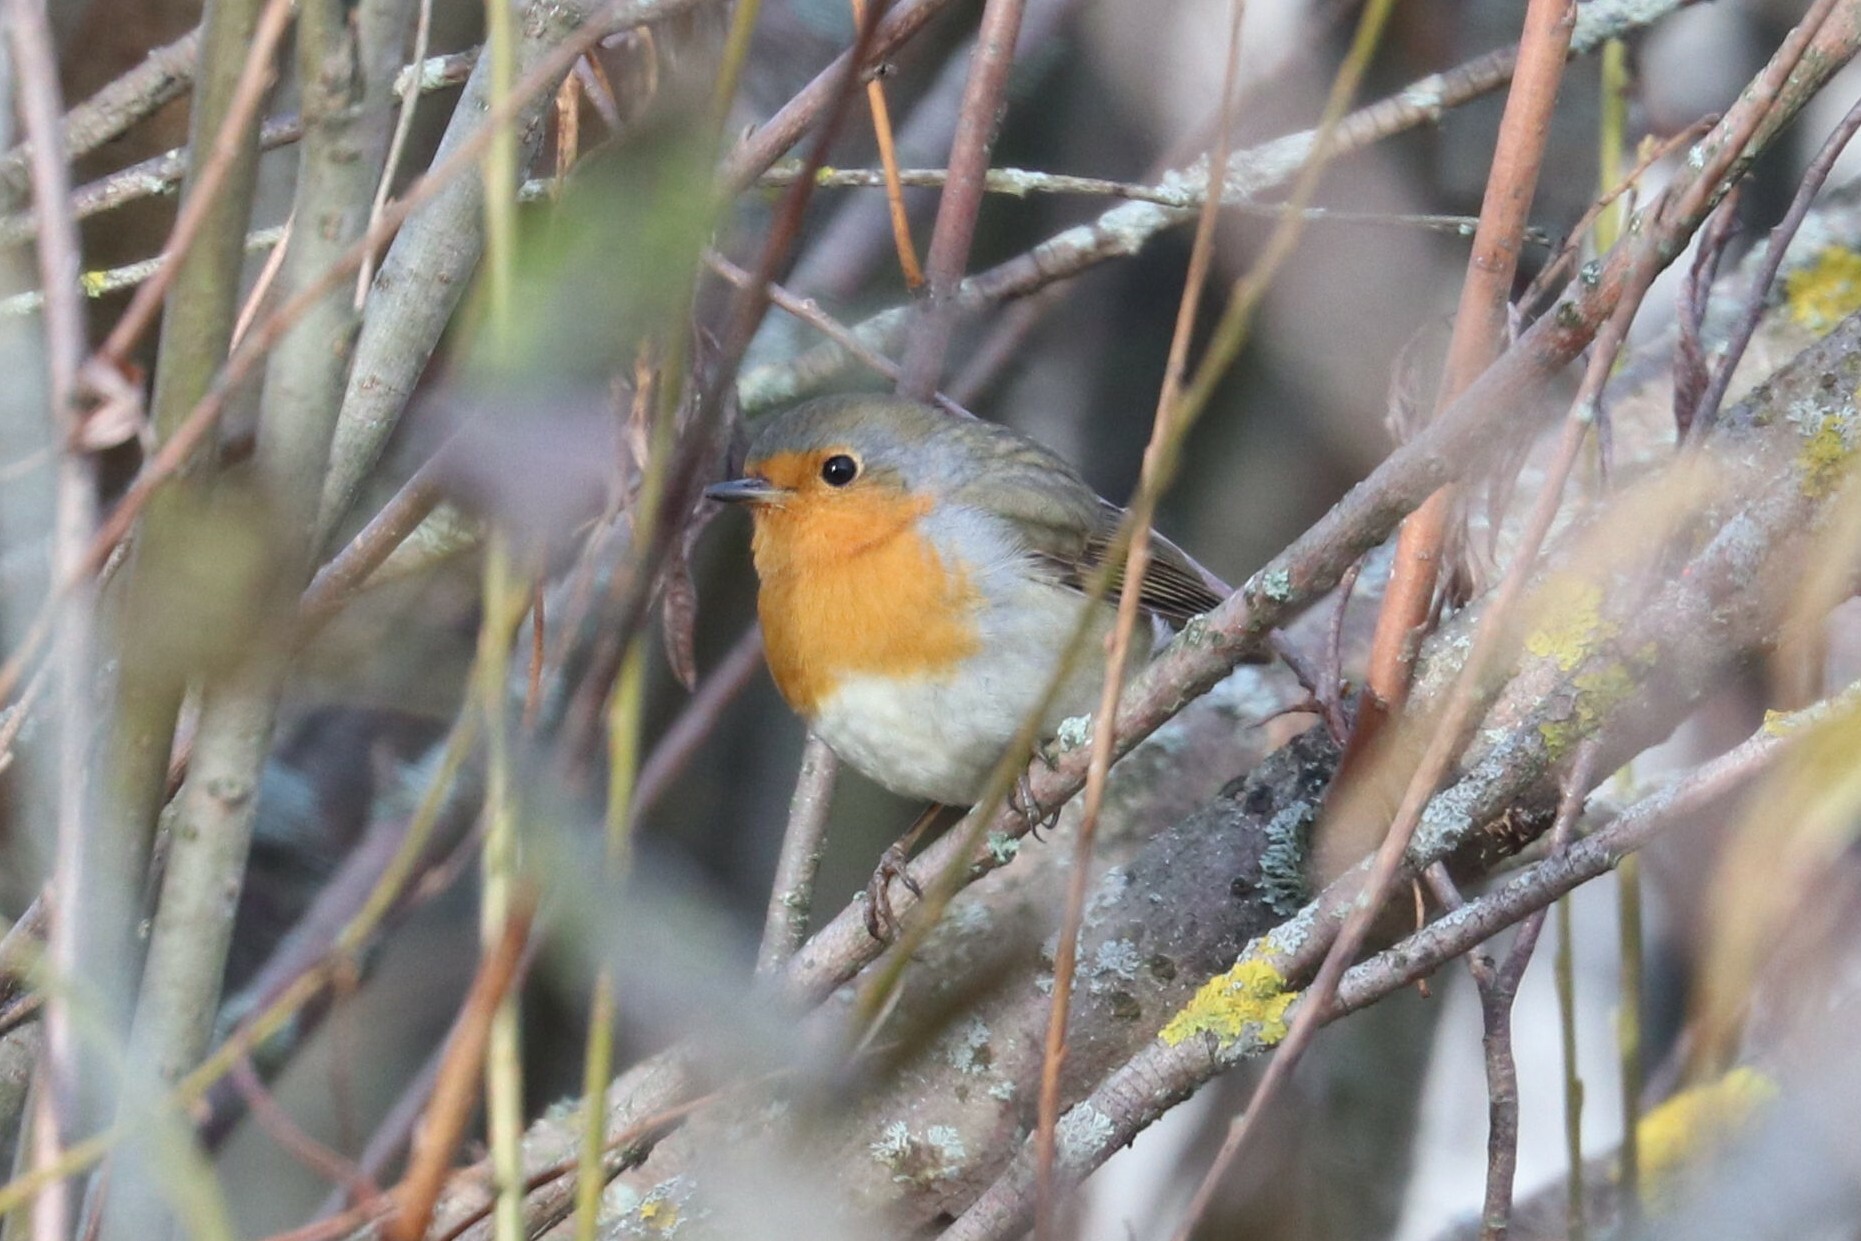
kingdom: Animalia
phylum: Chordata
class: Aves
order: Passeriformes
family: Muscicapidae
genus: Erithacus
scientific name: Erithacus rubecula
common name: European robin
